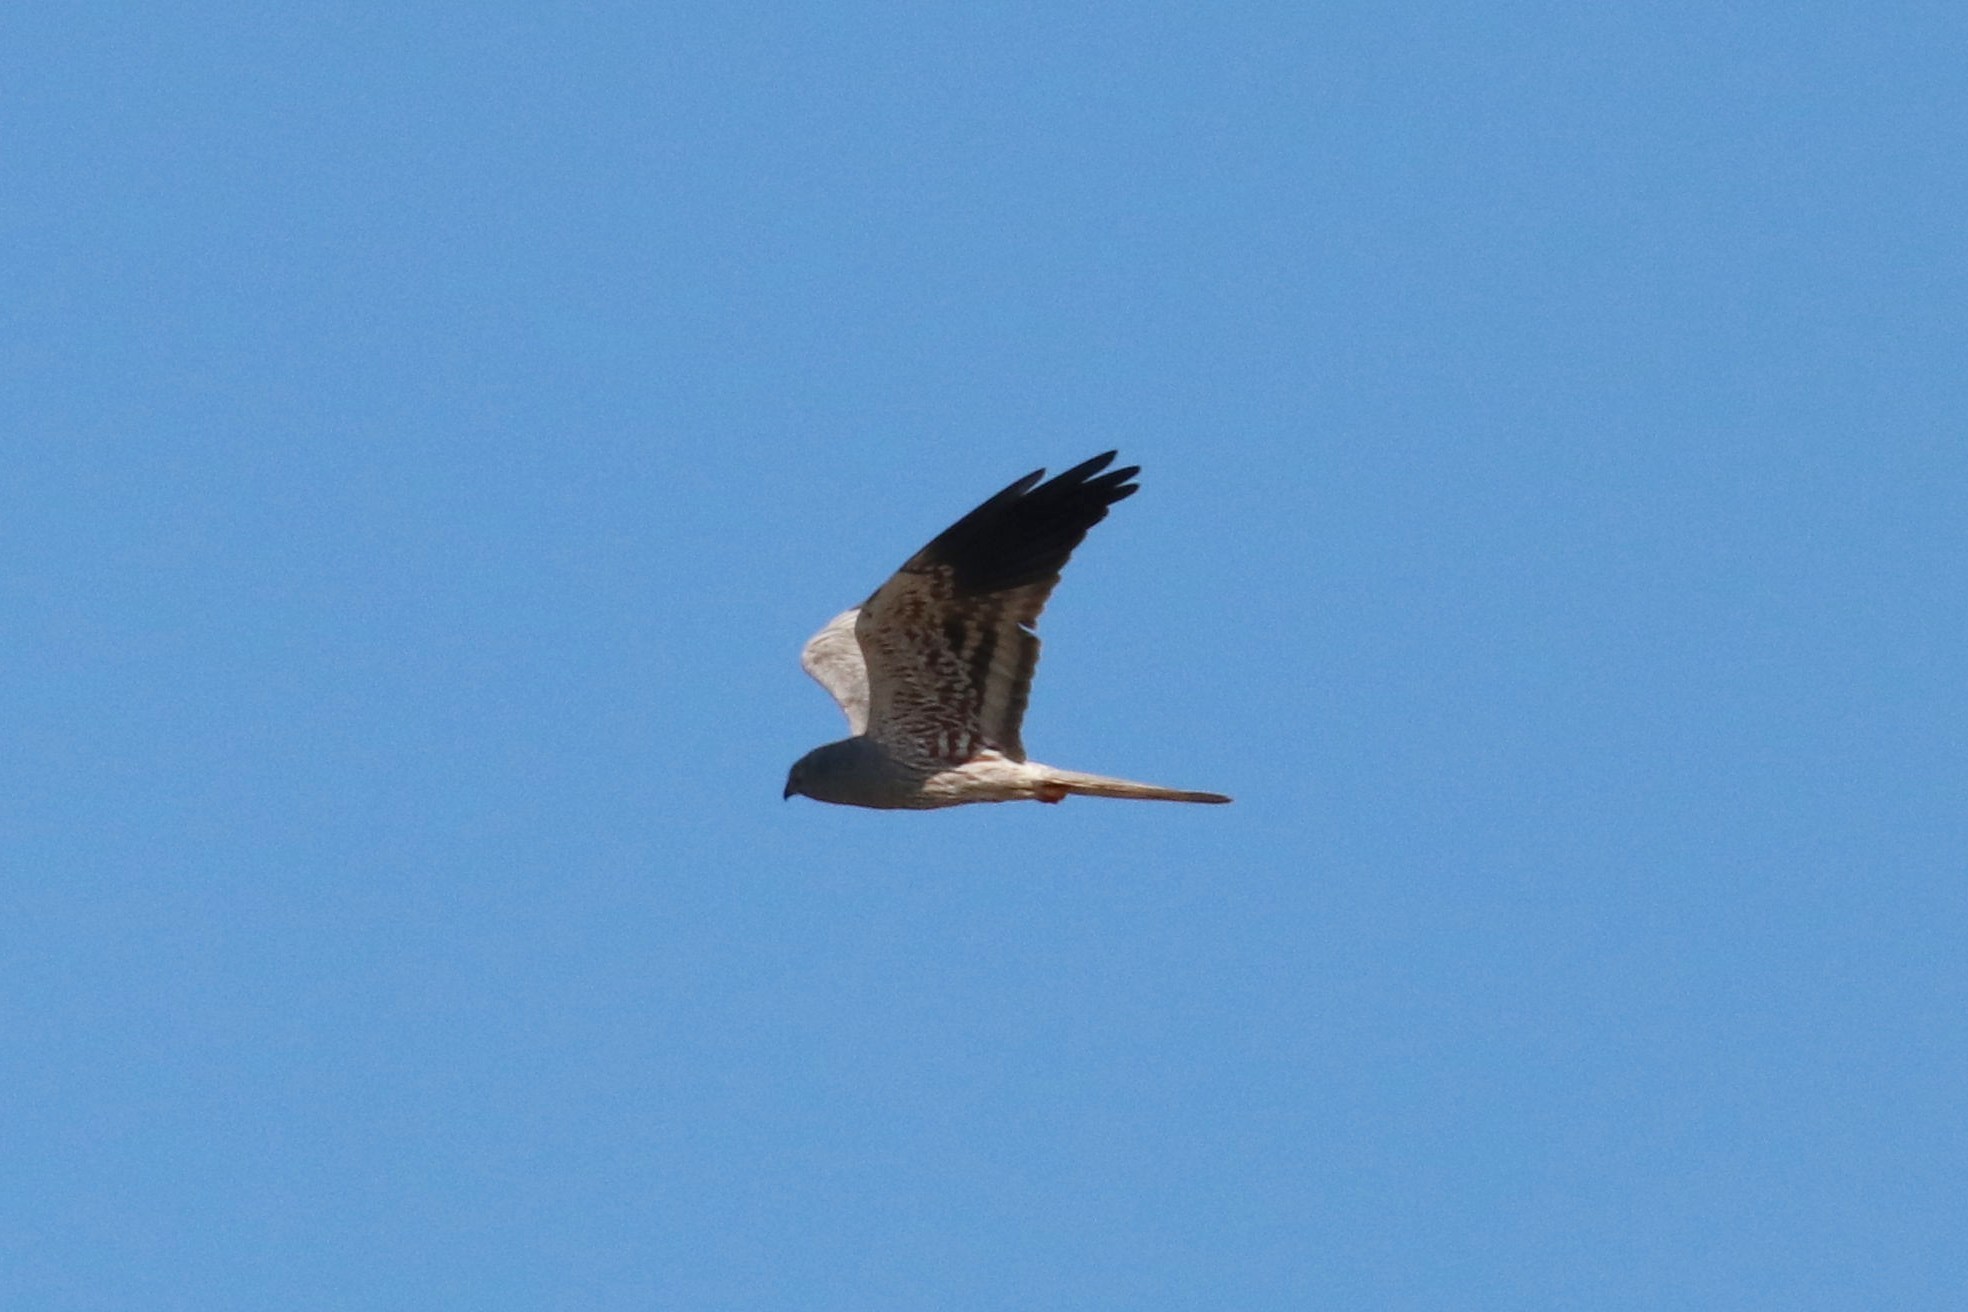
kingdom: Animalia
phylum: Chordata
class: Aves
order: Accipitriformes
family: Accipitridae
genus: Circus
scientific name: Circus pygargus
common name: Montagu's harrier
